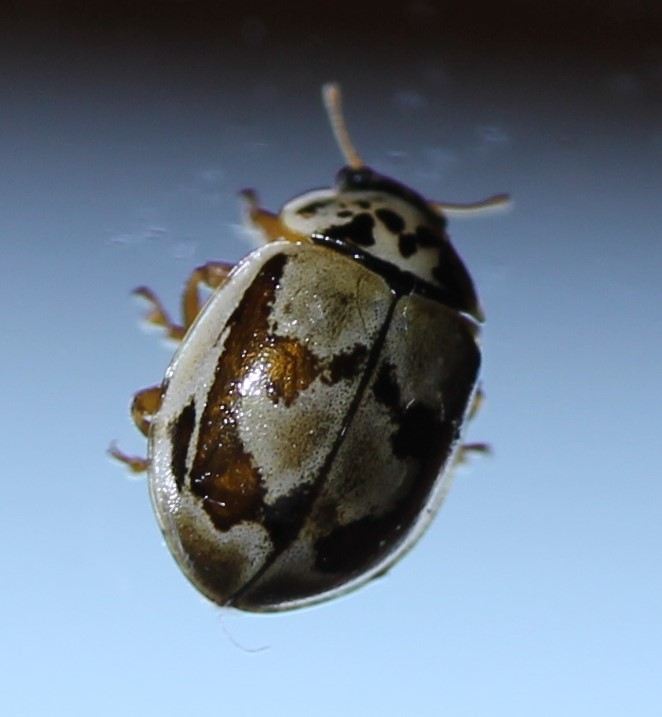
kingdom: Animalia
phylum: Arthropoda
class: Insecta
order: Coleoptera
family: Coccinellidae
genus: Mulsantina
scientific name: Mulsantina picta
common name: Painted ladybird
